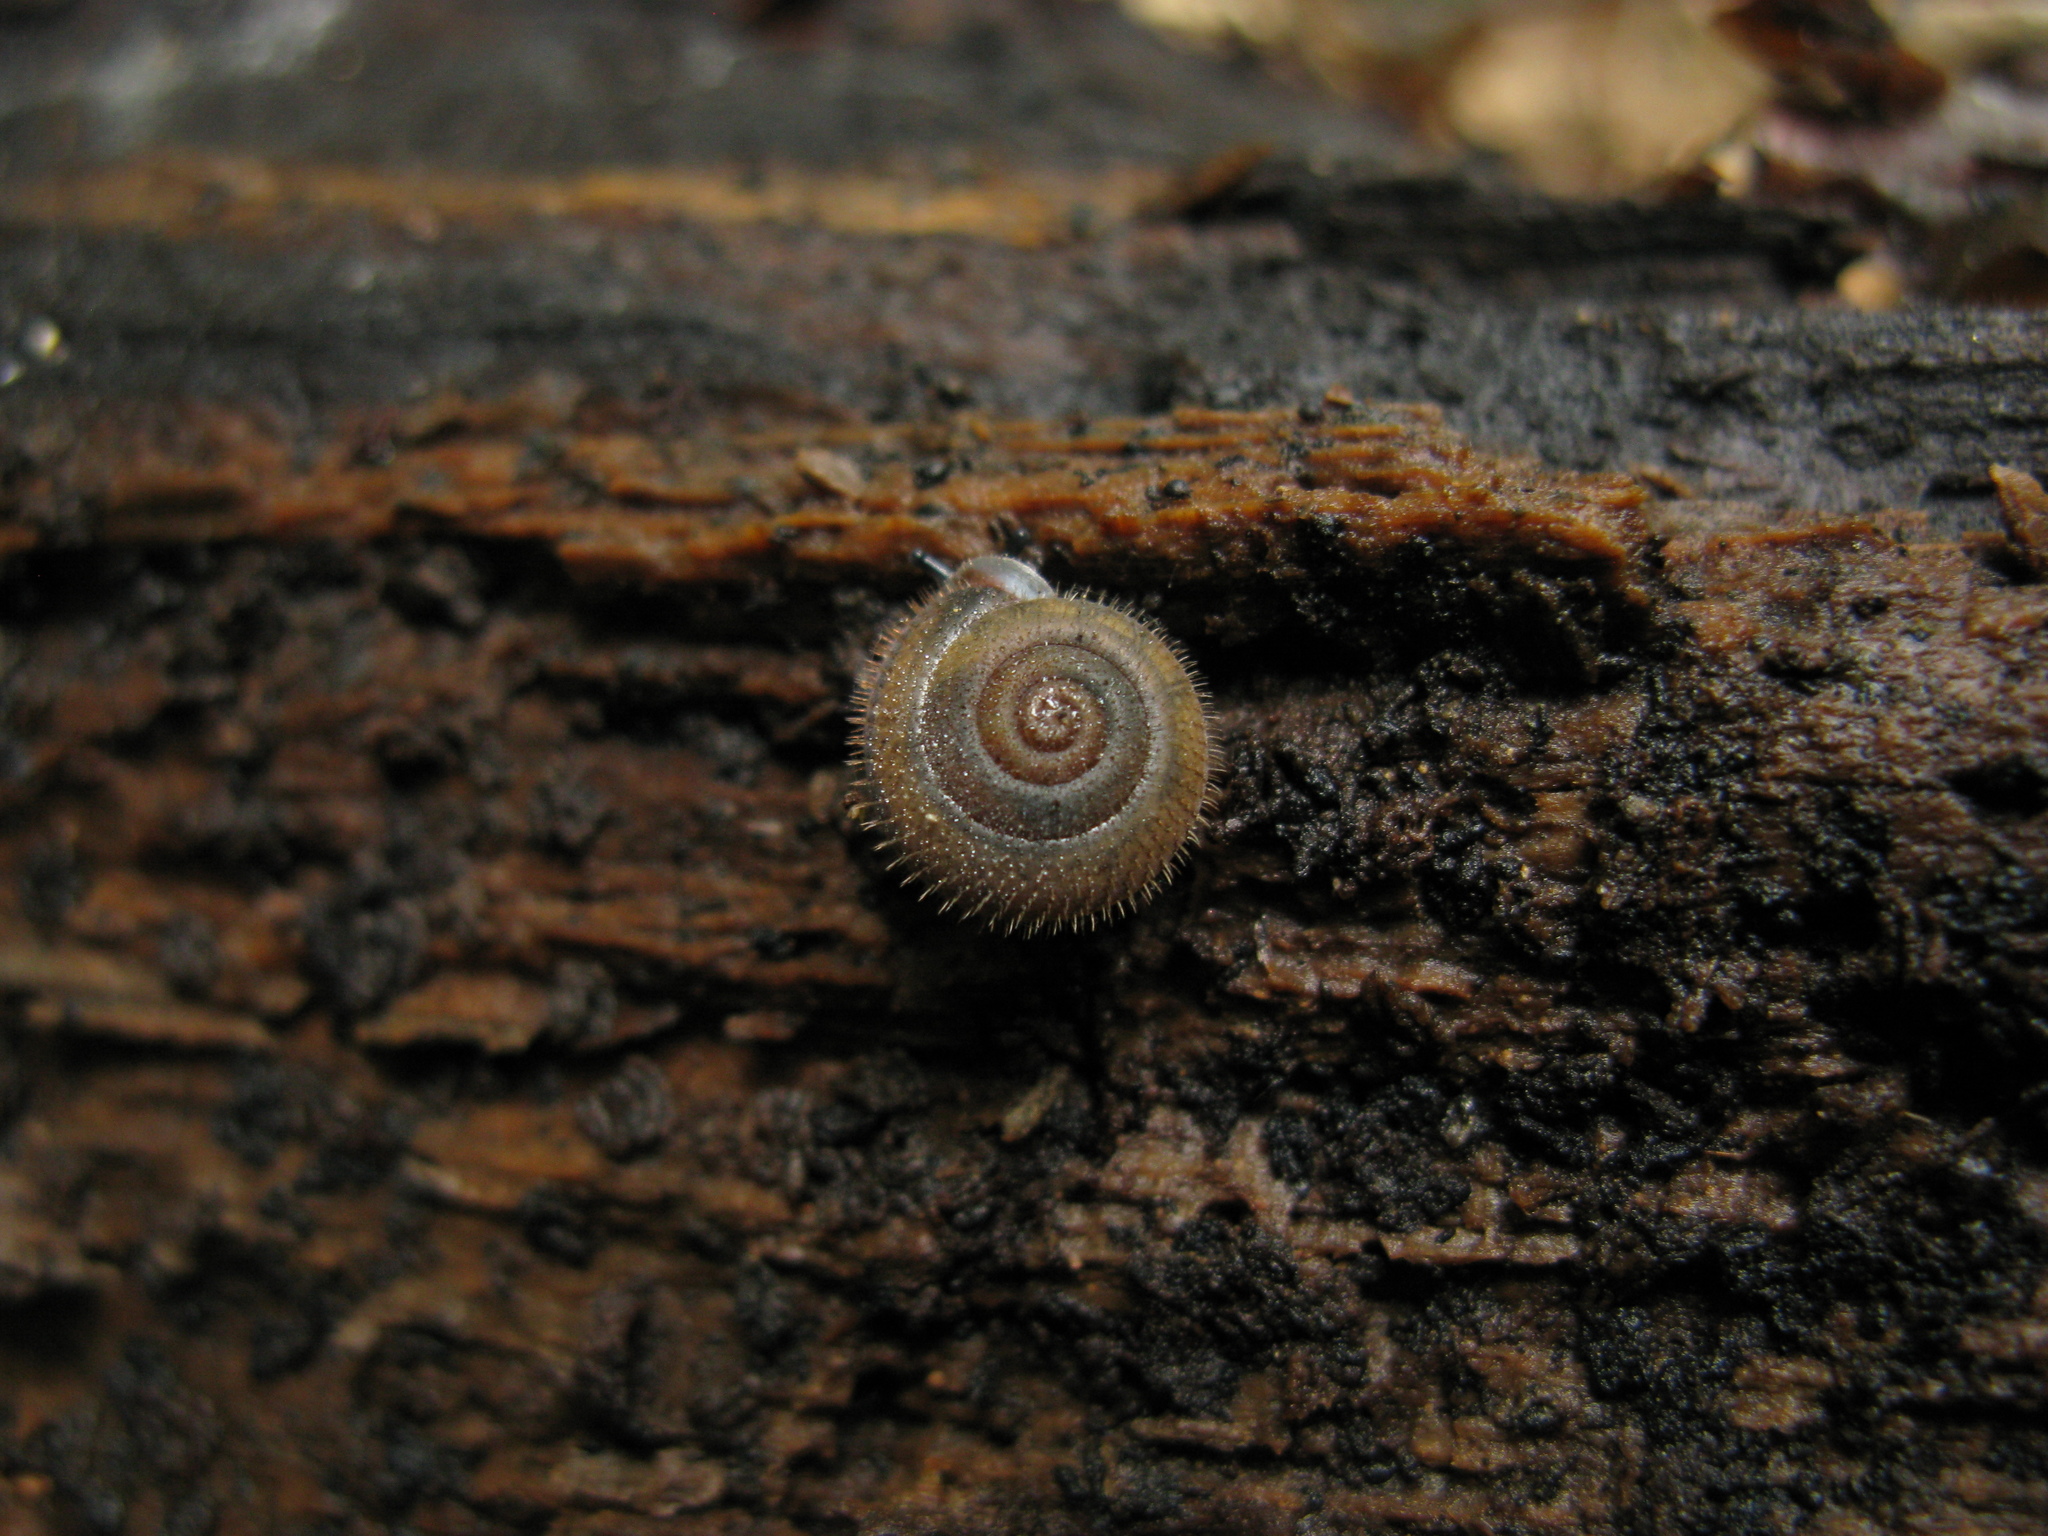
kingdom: Animalia
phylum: Mollusca
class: Gastropoda
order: Stylommatophora
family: Helicidae
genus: Isognomostoma
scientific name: Isognomostoma isognomostomos
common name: Mask snail
